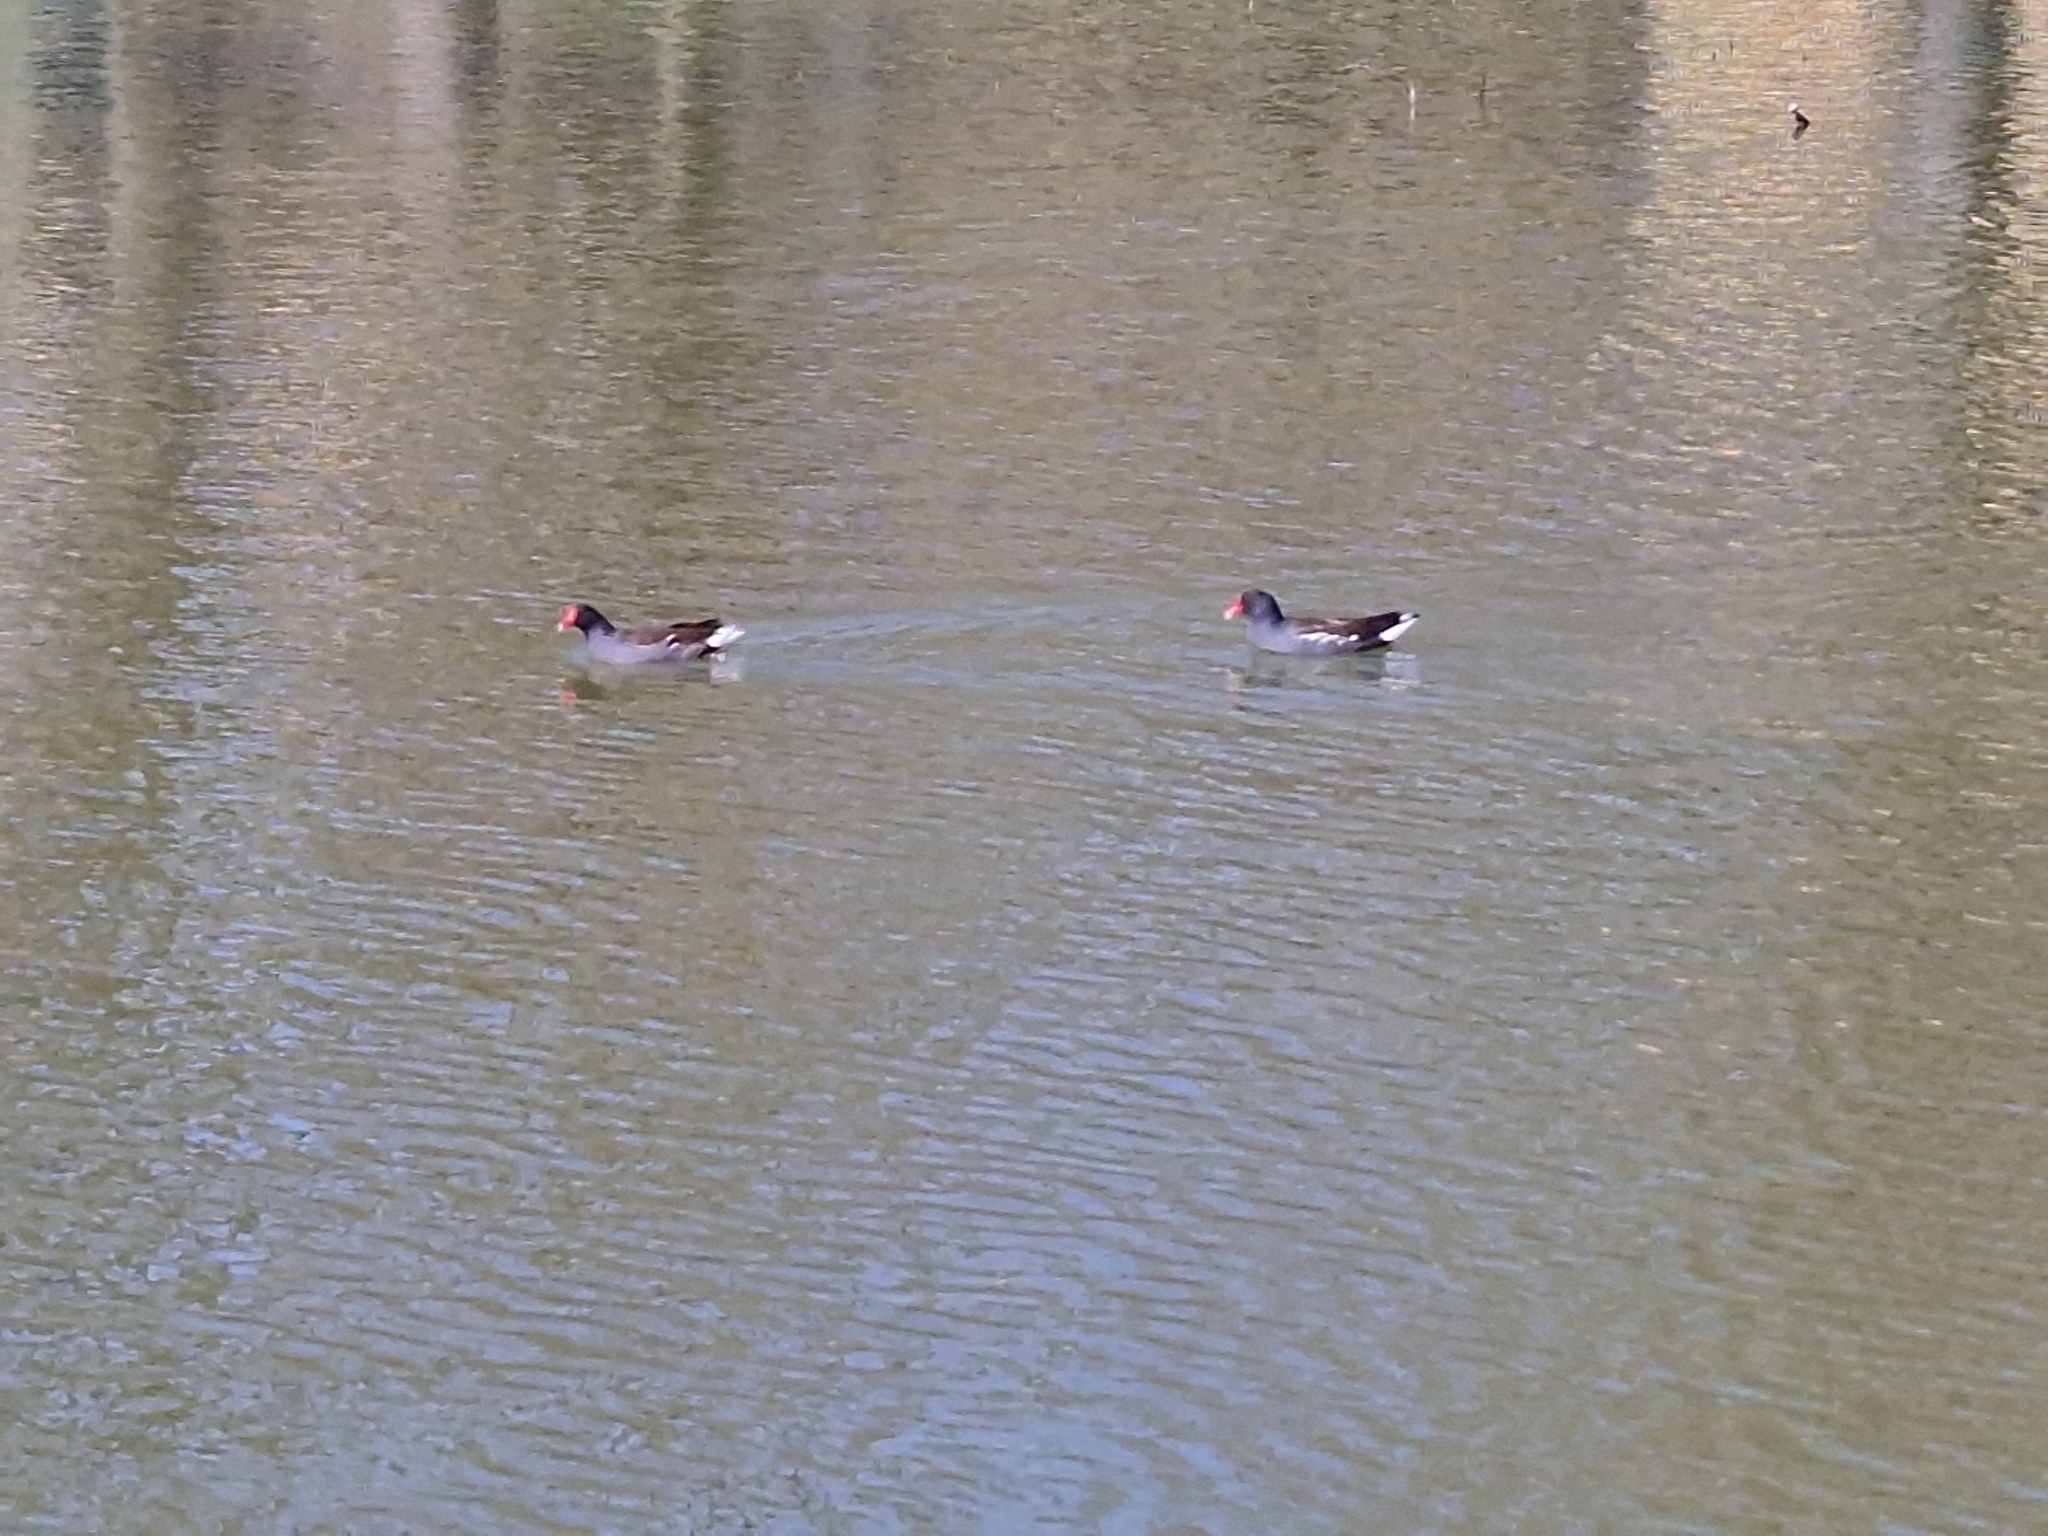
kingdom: Animalia
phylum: Chordata
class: Aves
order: Gruiformes
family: Rallidae
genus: Gallinula
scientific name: Gallinula chloropus
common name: Common moorhen
